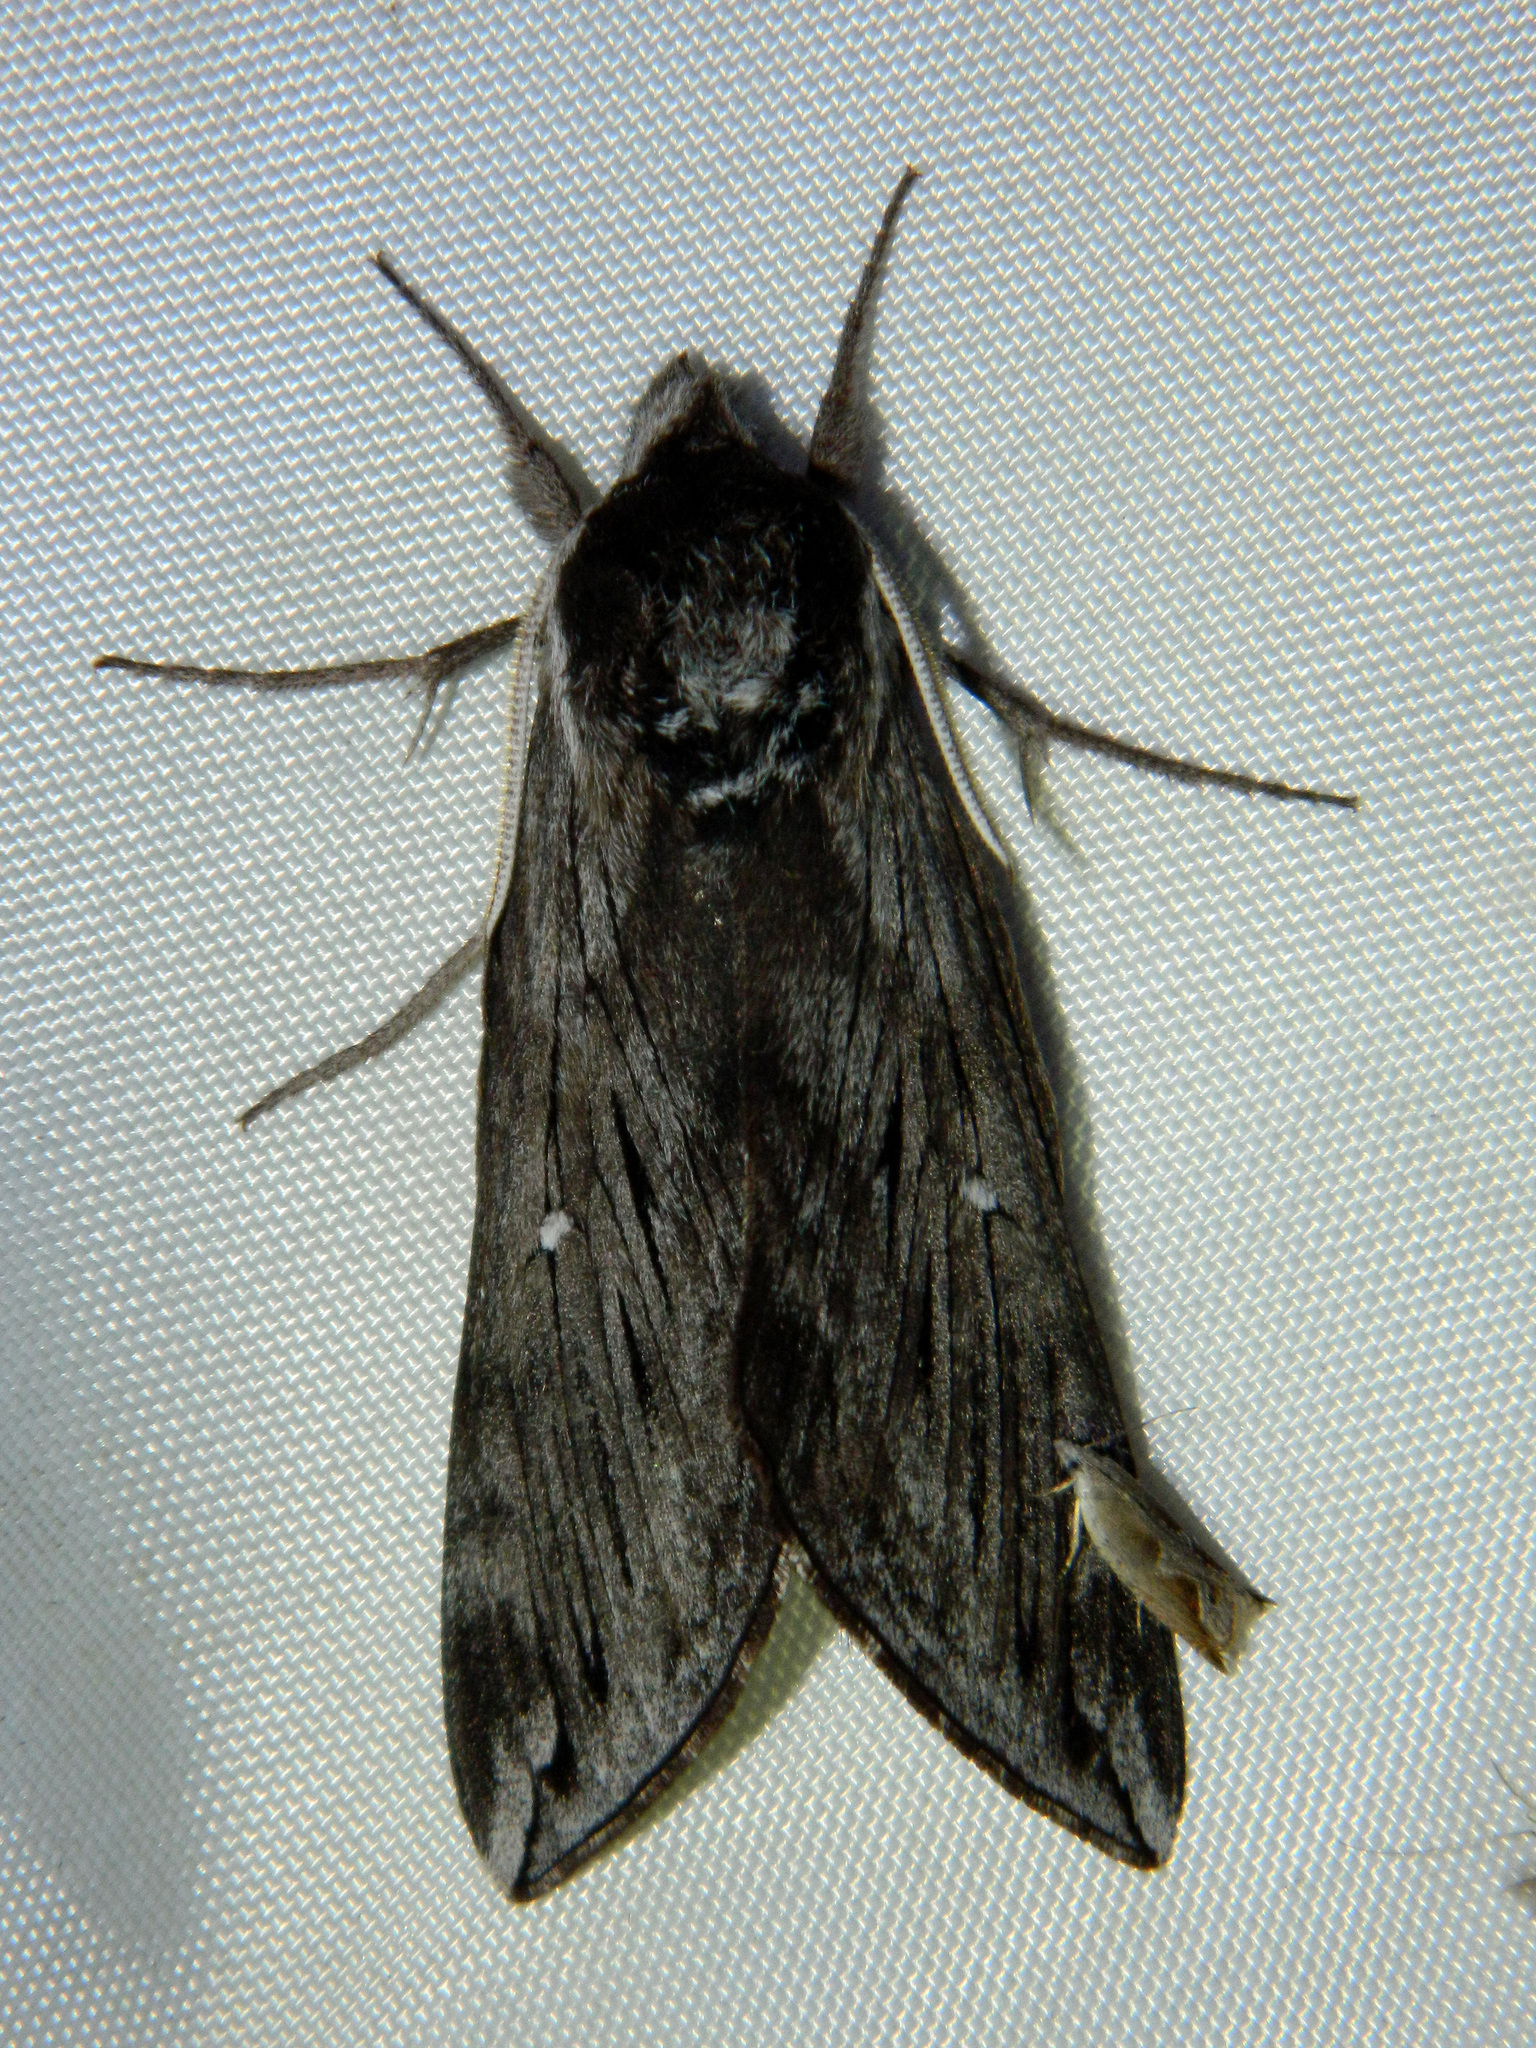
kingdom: Animalia
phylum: Arthropoda
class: Insecta
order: Lepidoptera
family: Sphingidae
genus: Sphinx
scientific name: Sphinx poecila
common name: Northern apple sphinx
